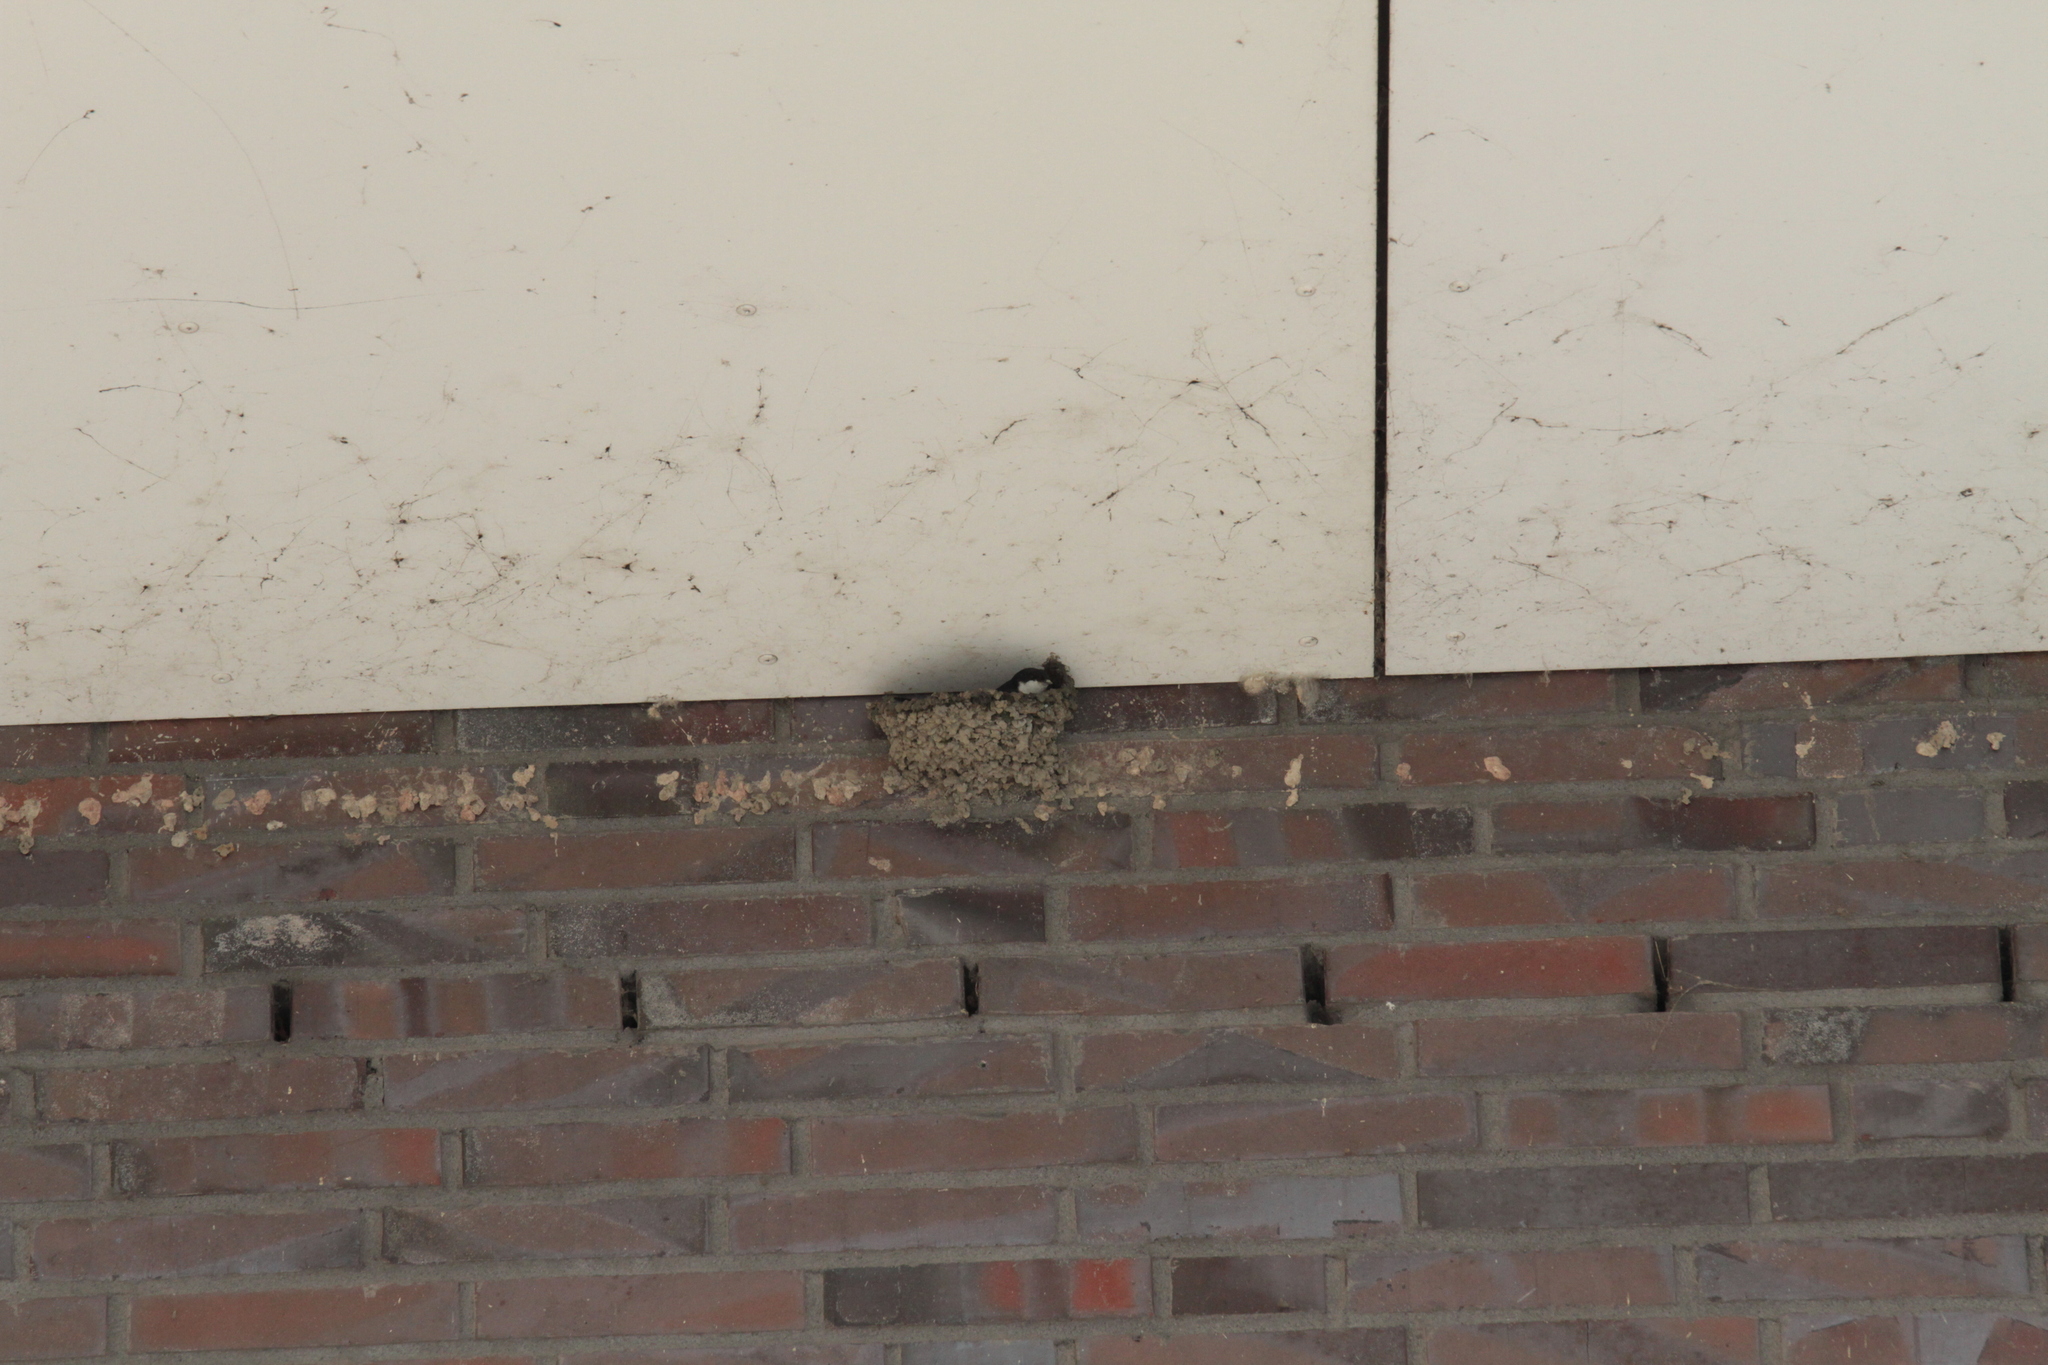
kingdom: Animalia
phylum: Chordata
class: Aves
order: Passeriformes
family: Hirundinidae
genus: Delichon
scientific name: Delichon urbicum
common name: Common house martin
